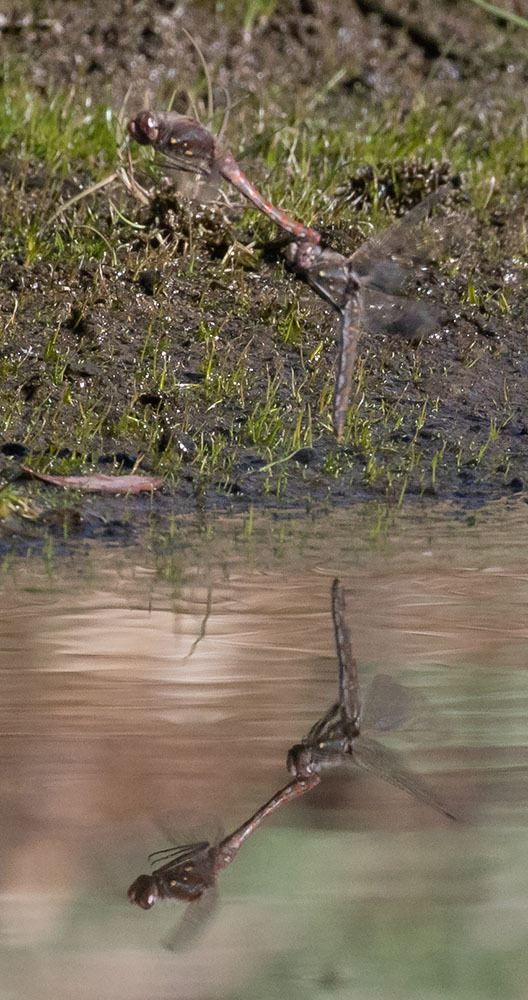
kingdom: Animalia
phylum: Arthropoda
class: Insecta
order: Odonata
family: Libellulidae
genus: Sympetrum
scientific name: Sympetrum corruptum
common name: Variegated meadowhawk
